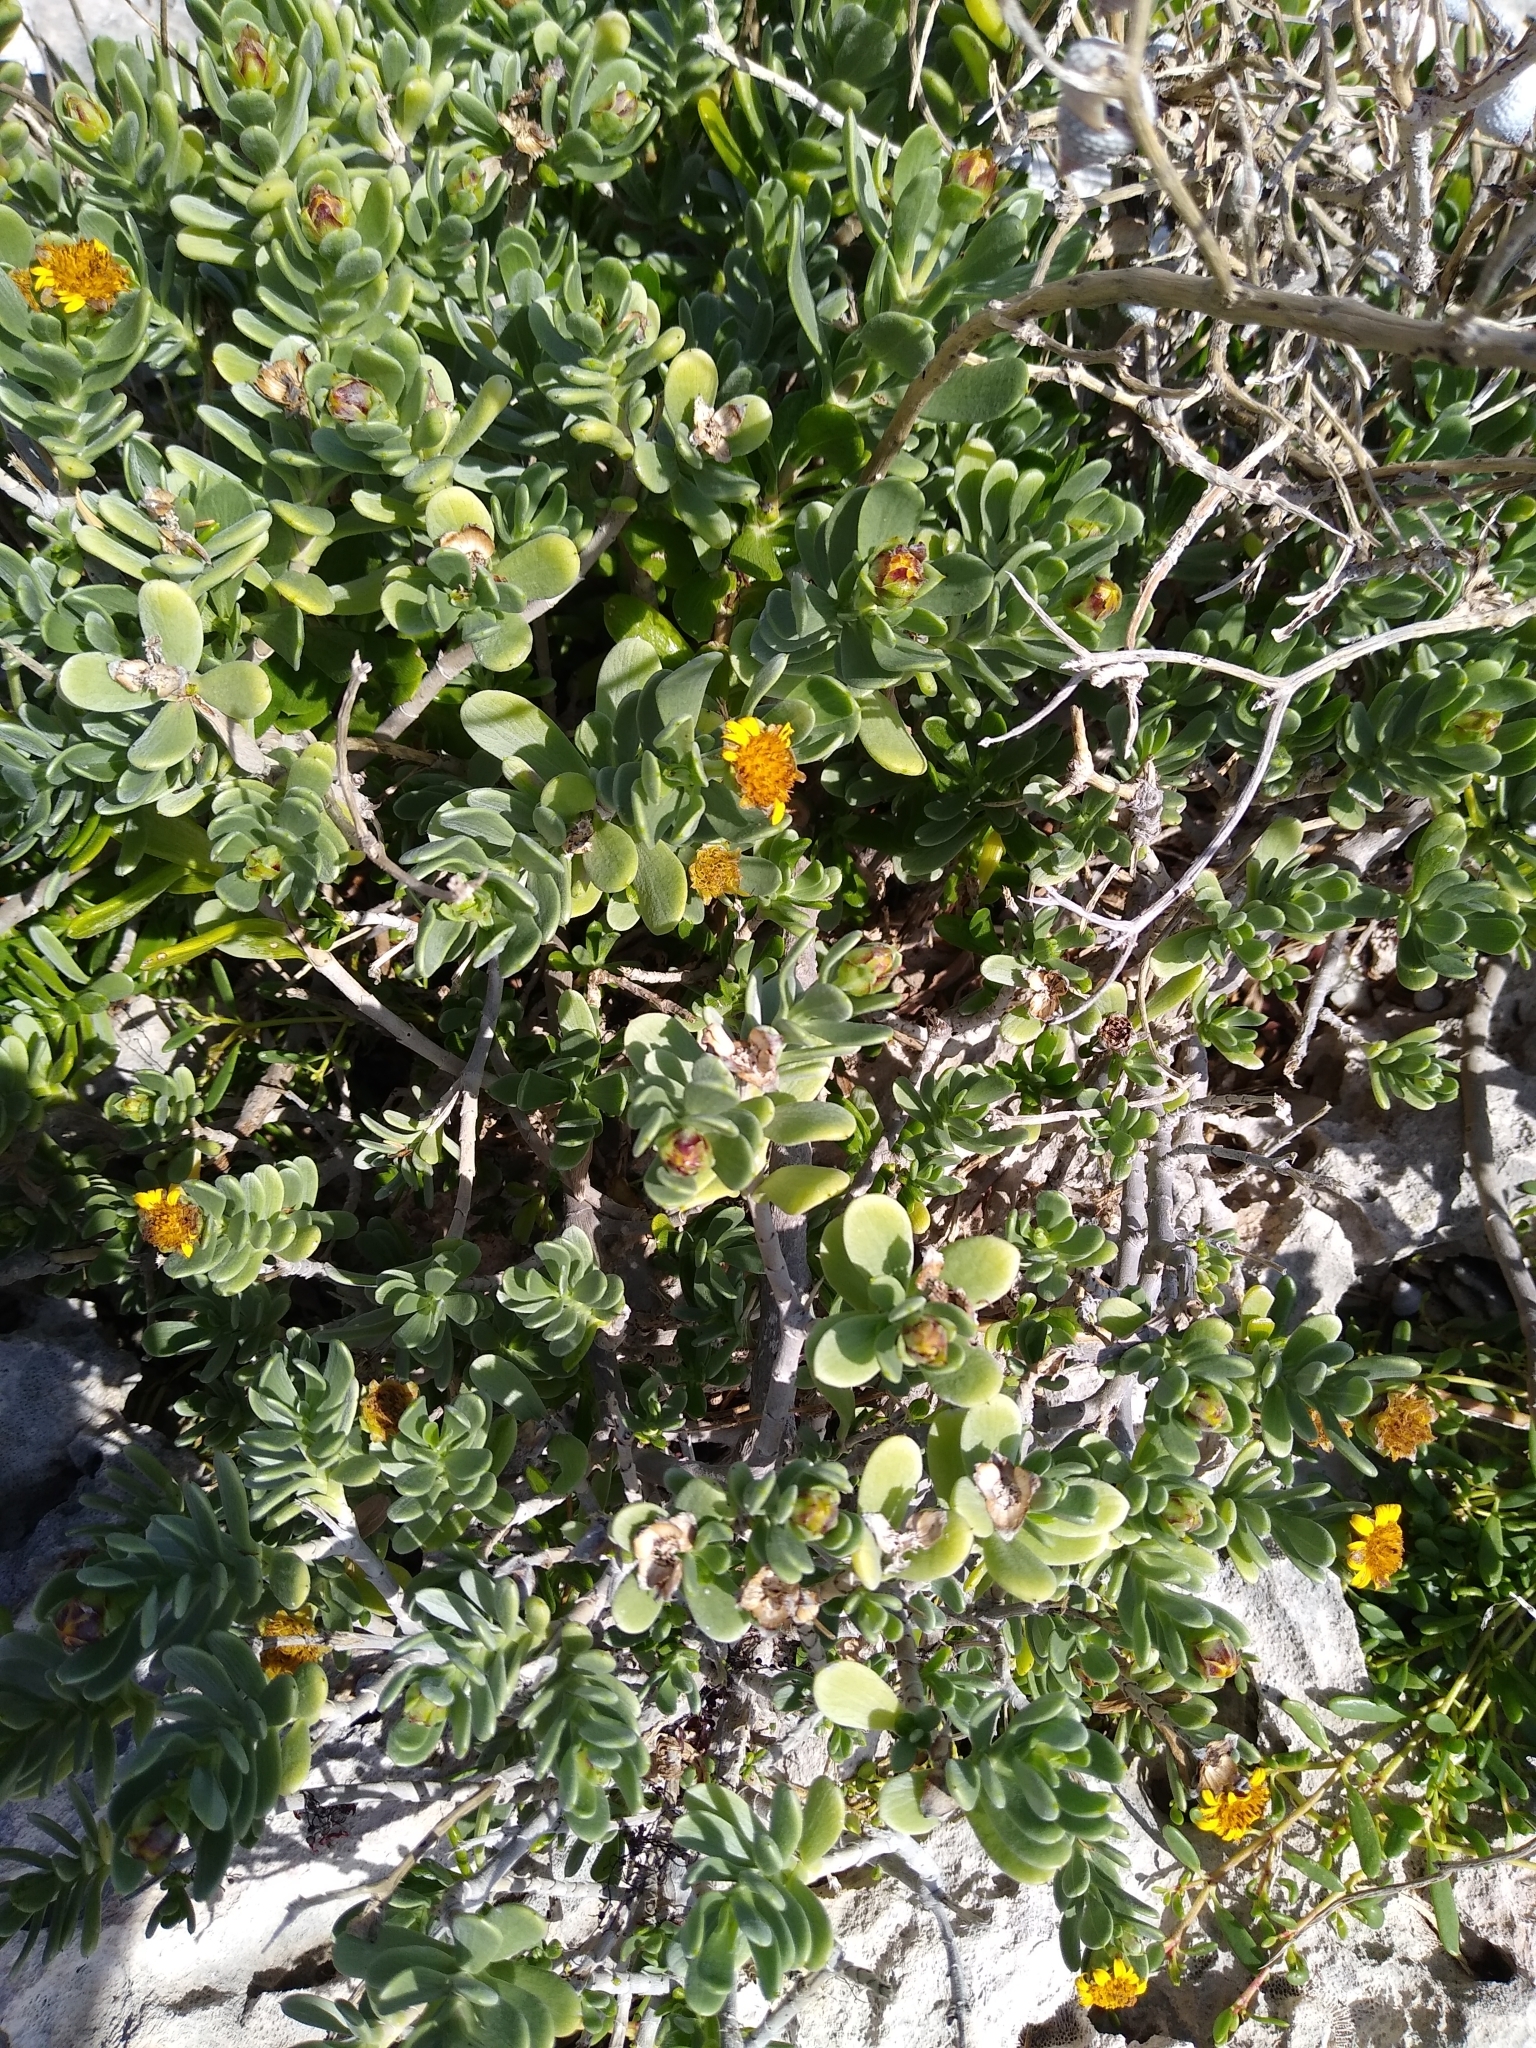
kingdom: Plantae
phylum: Tracheophyta
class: Magnoliopsida
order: Asterales
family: Asteraceae
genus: Borrichia
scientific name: Borrichia arborescens
